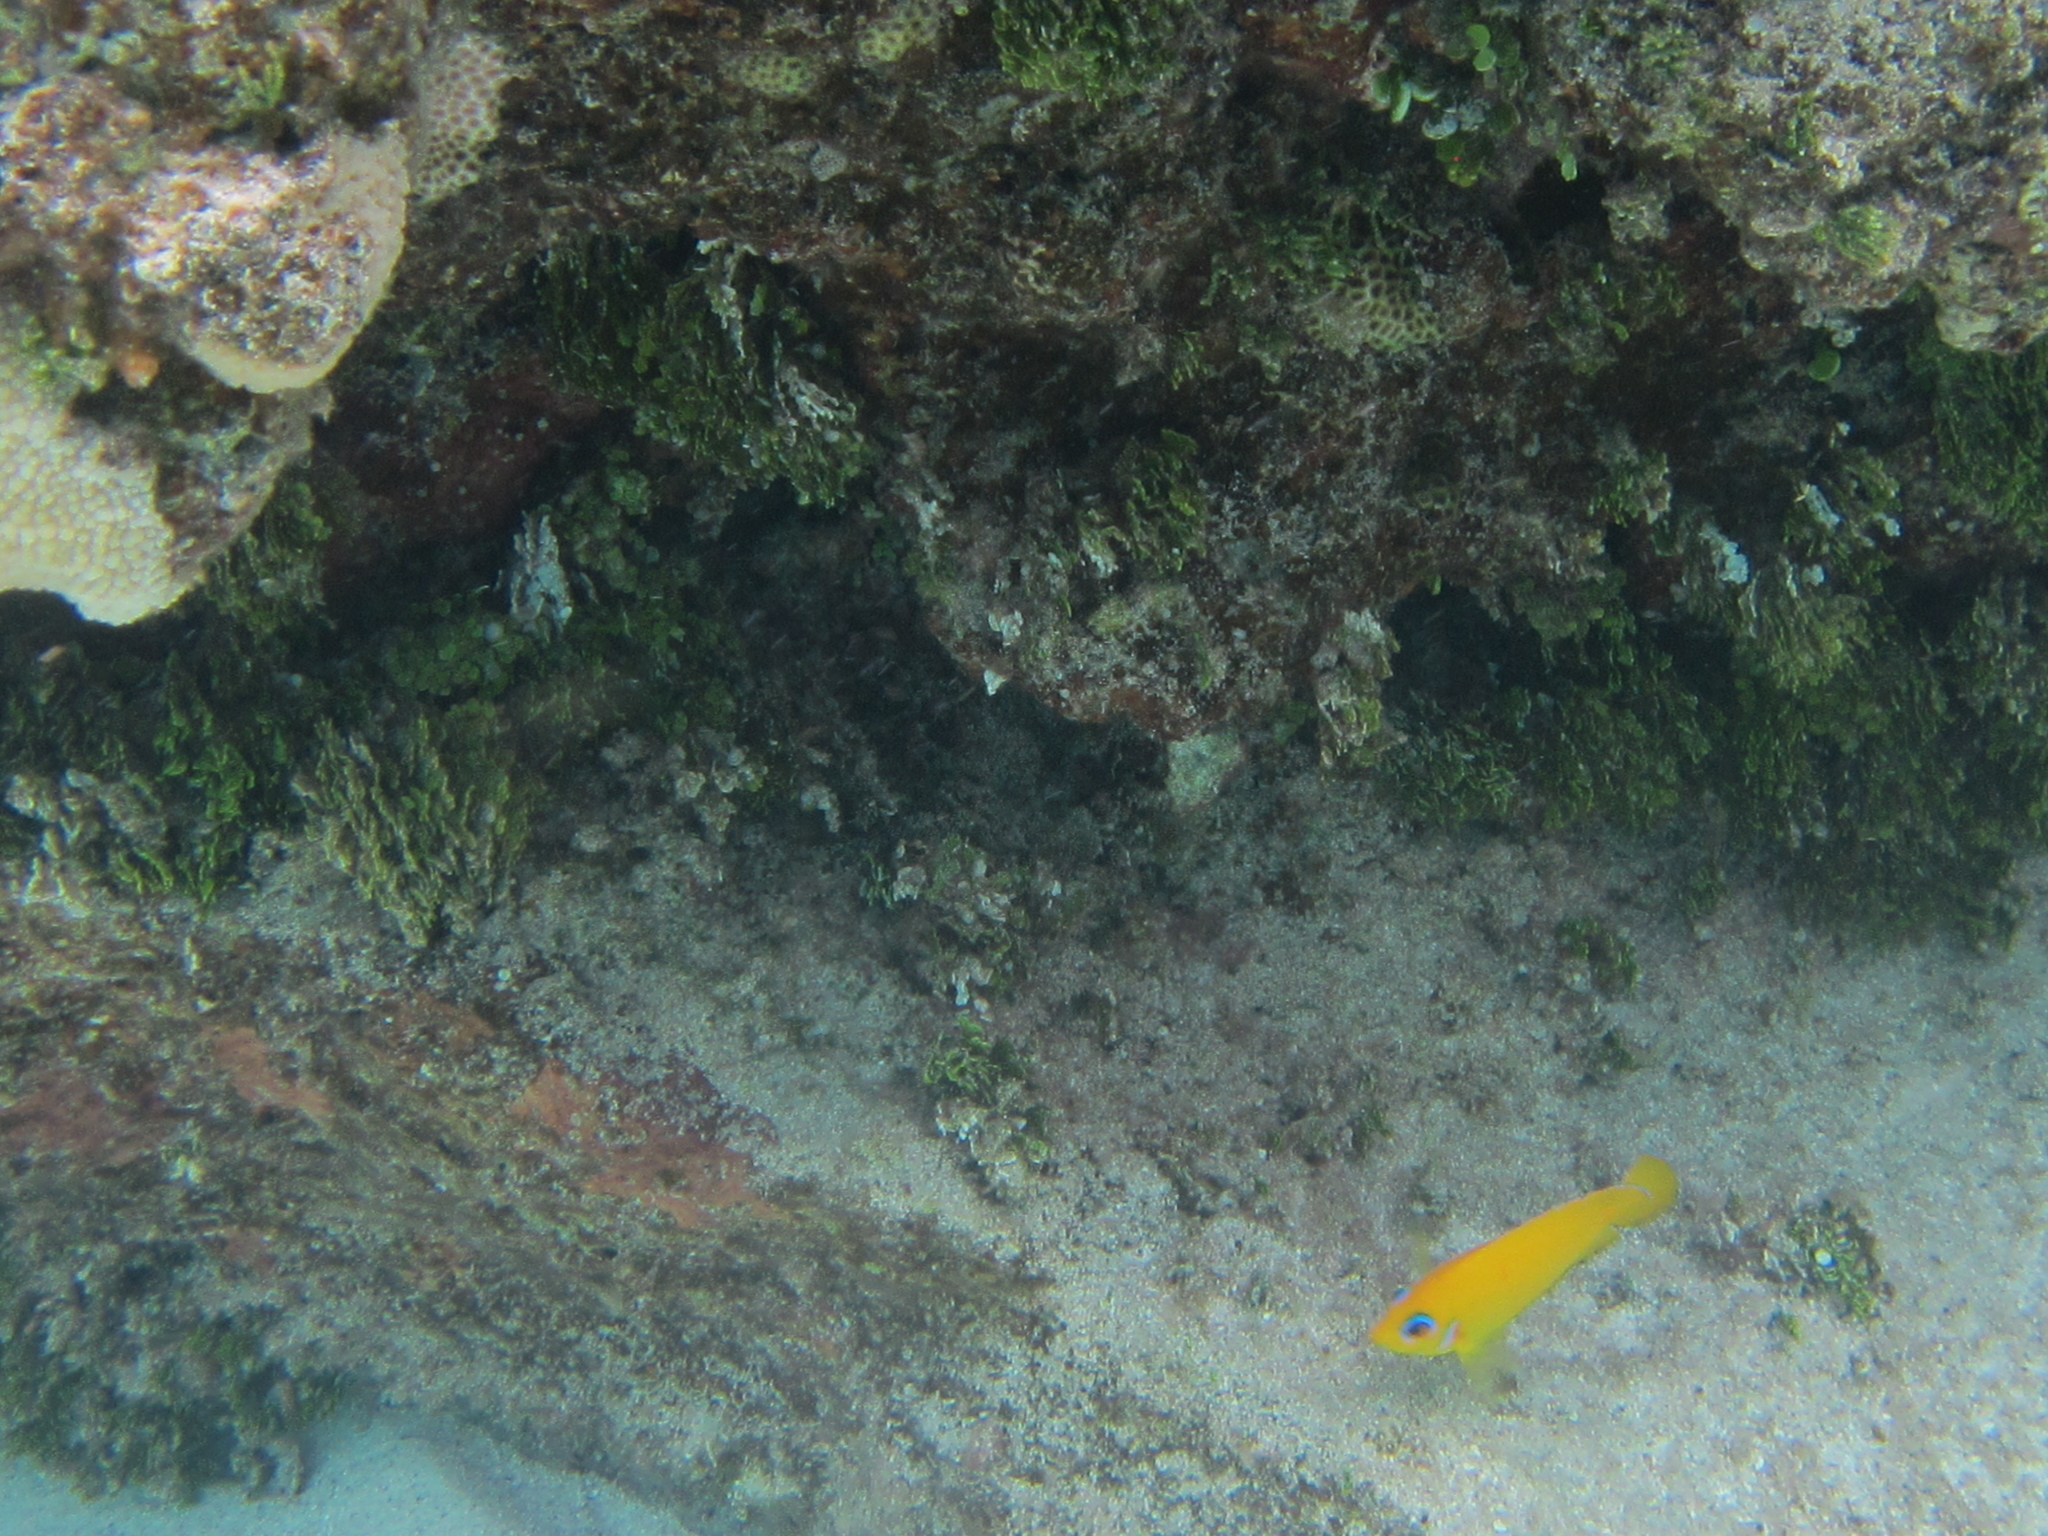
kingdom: Animalia
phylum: Chordata
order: Perciformes
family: Pomacanthidae
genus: Centropyge
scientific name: Centropyge flavissima
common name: Lemonpeel angelfish
